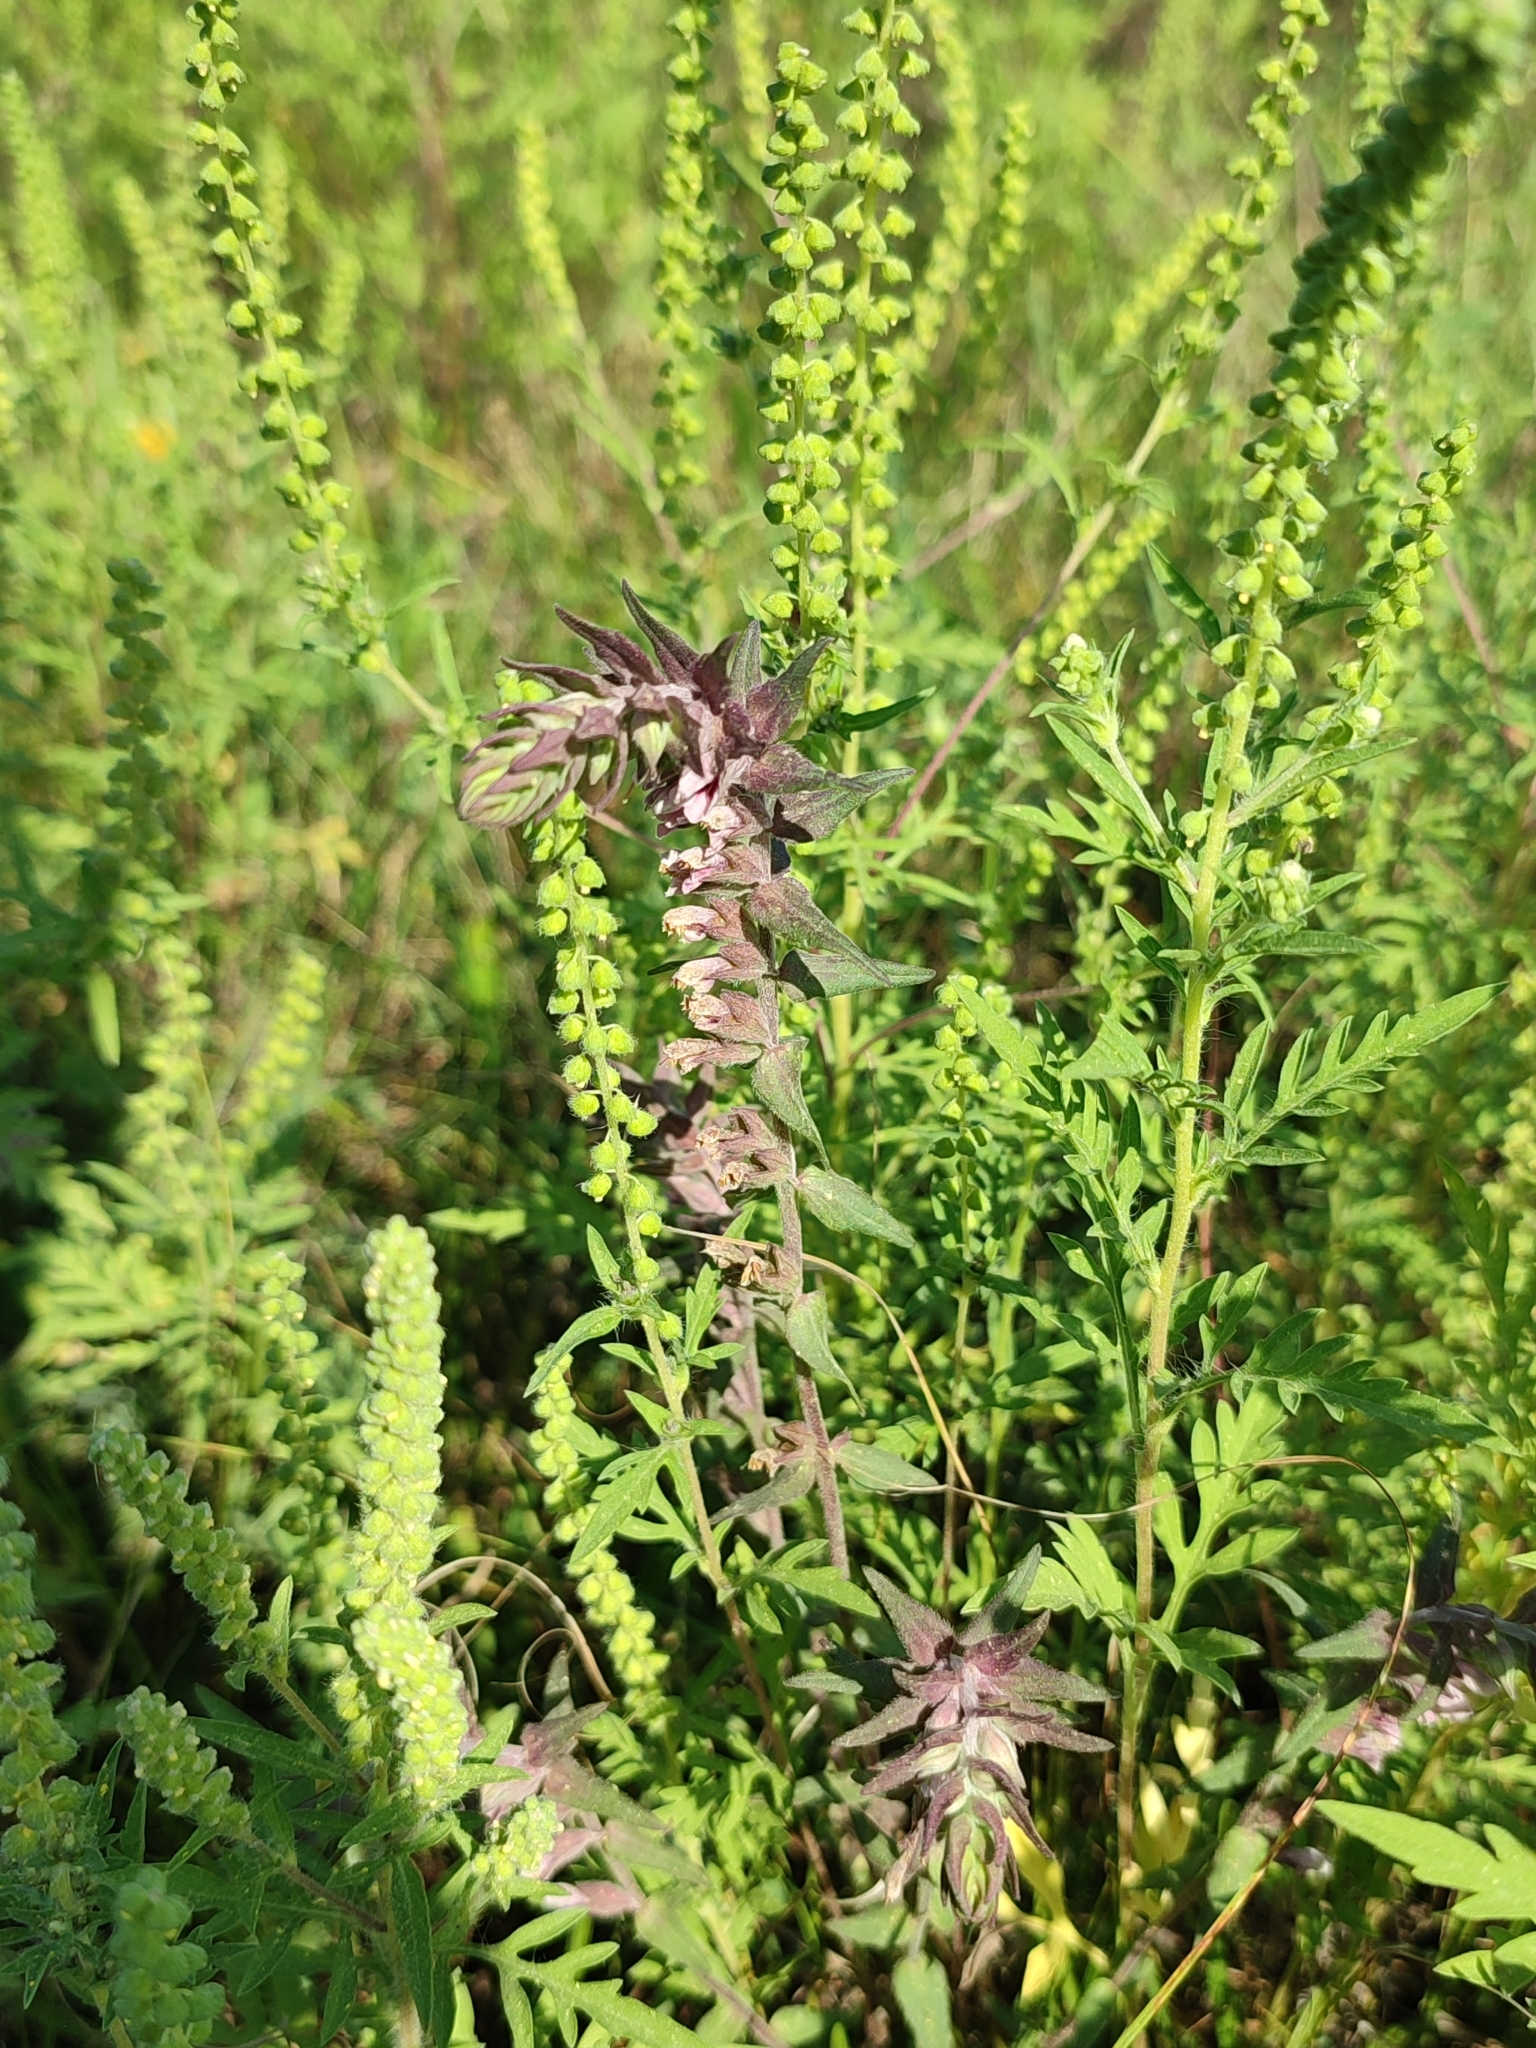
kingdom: Plantae
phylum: Tracheophyta
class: Magnoliopsida
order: Lamiales
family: Orobanchaceae
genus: Odontites
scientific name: Odontites vulgaris
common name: Broomrape
